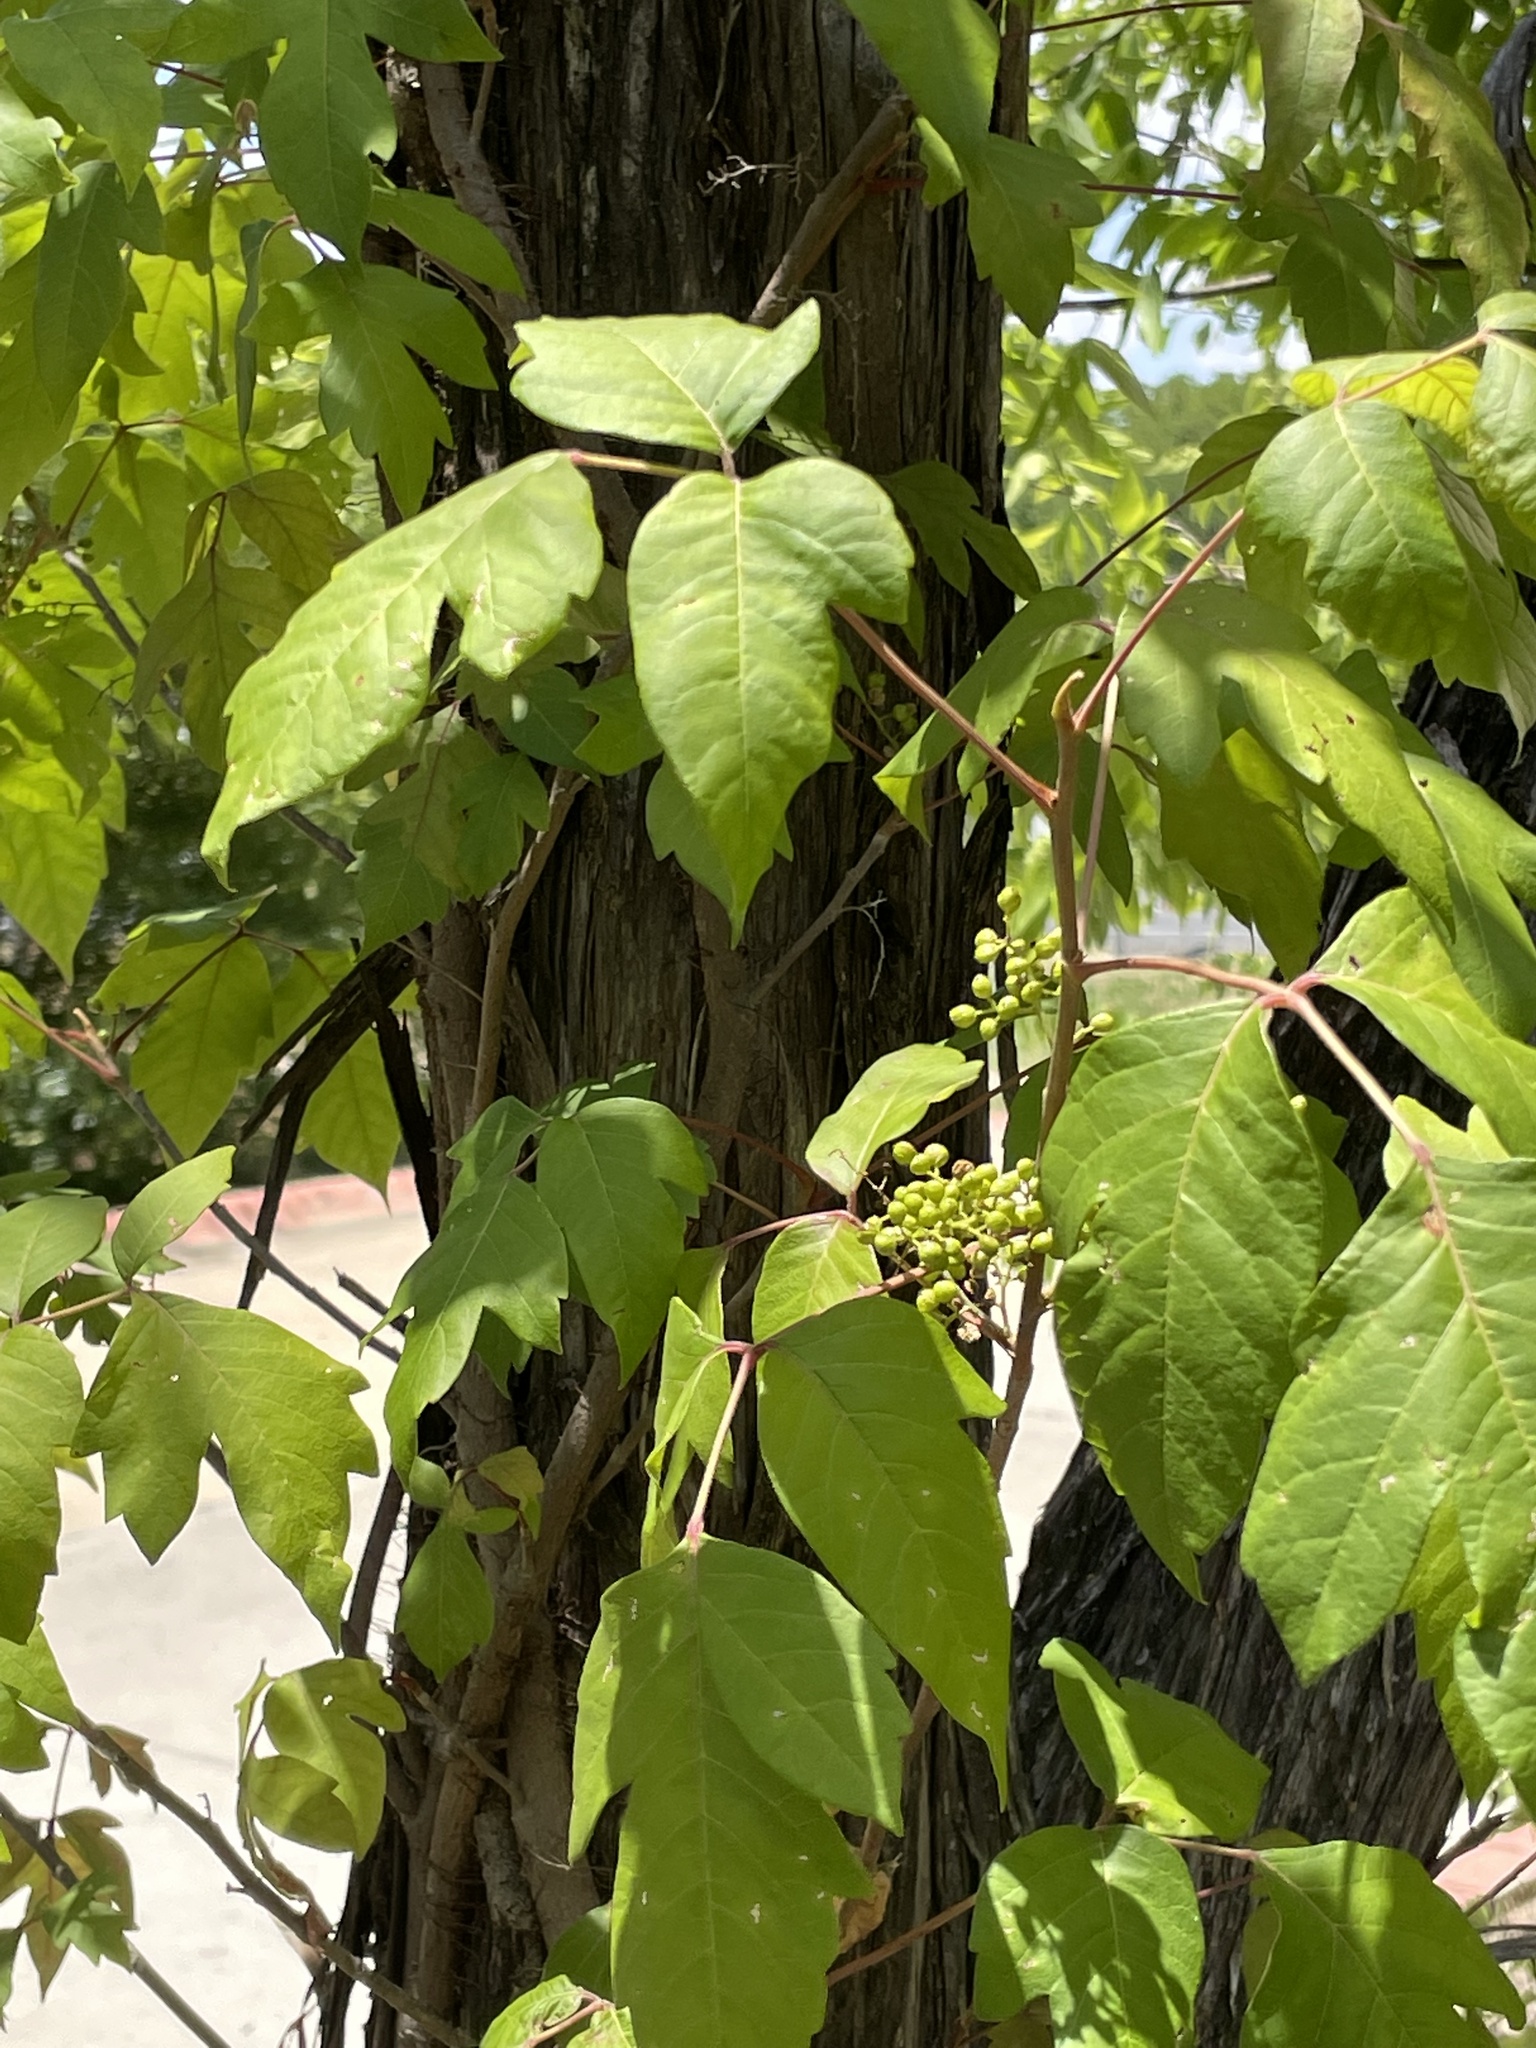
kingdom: Plantae
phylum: Tracheophyta
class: Magnoliopsida
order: Sapindales
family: Anacardiaceae
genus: Toxicodendron
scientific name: Toxicodendron radicans
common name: Poison ivy
